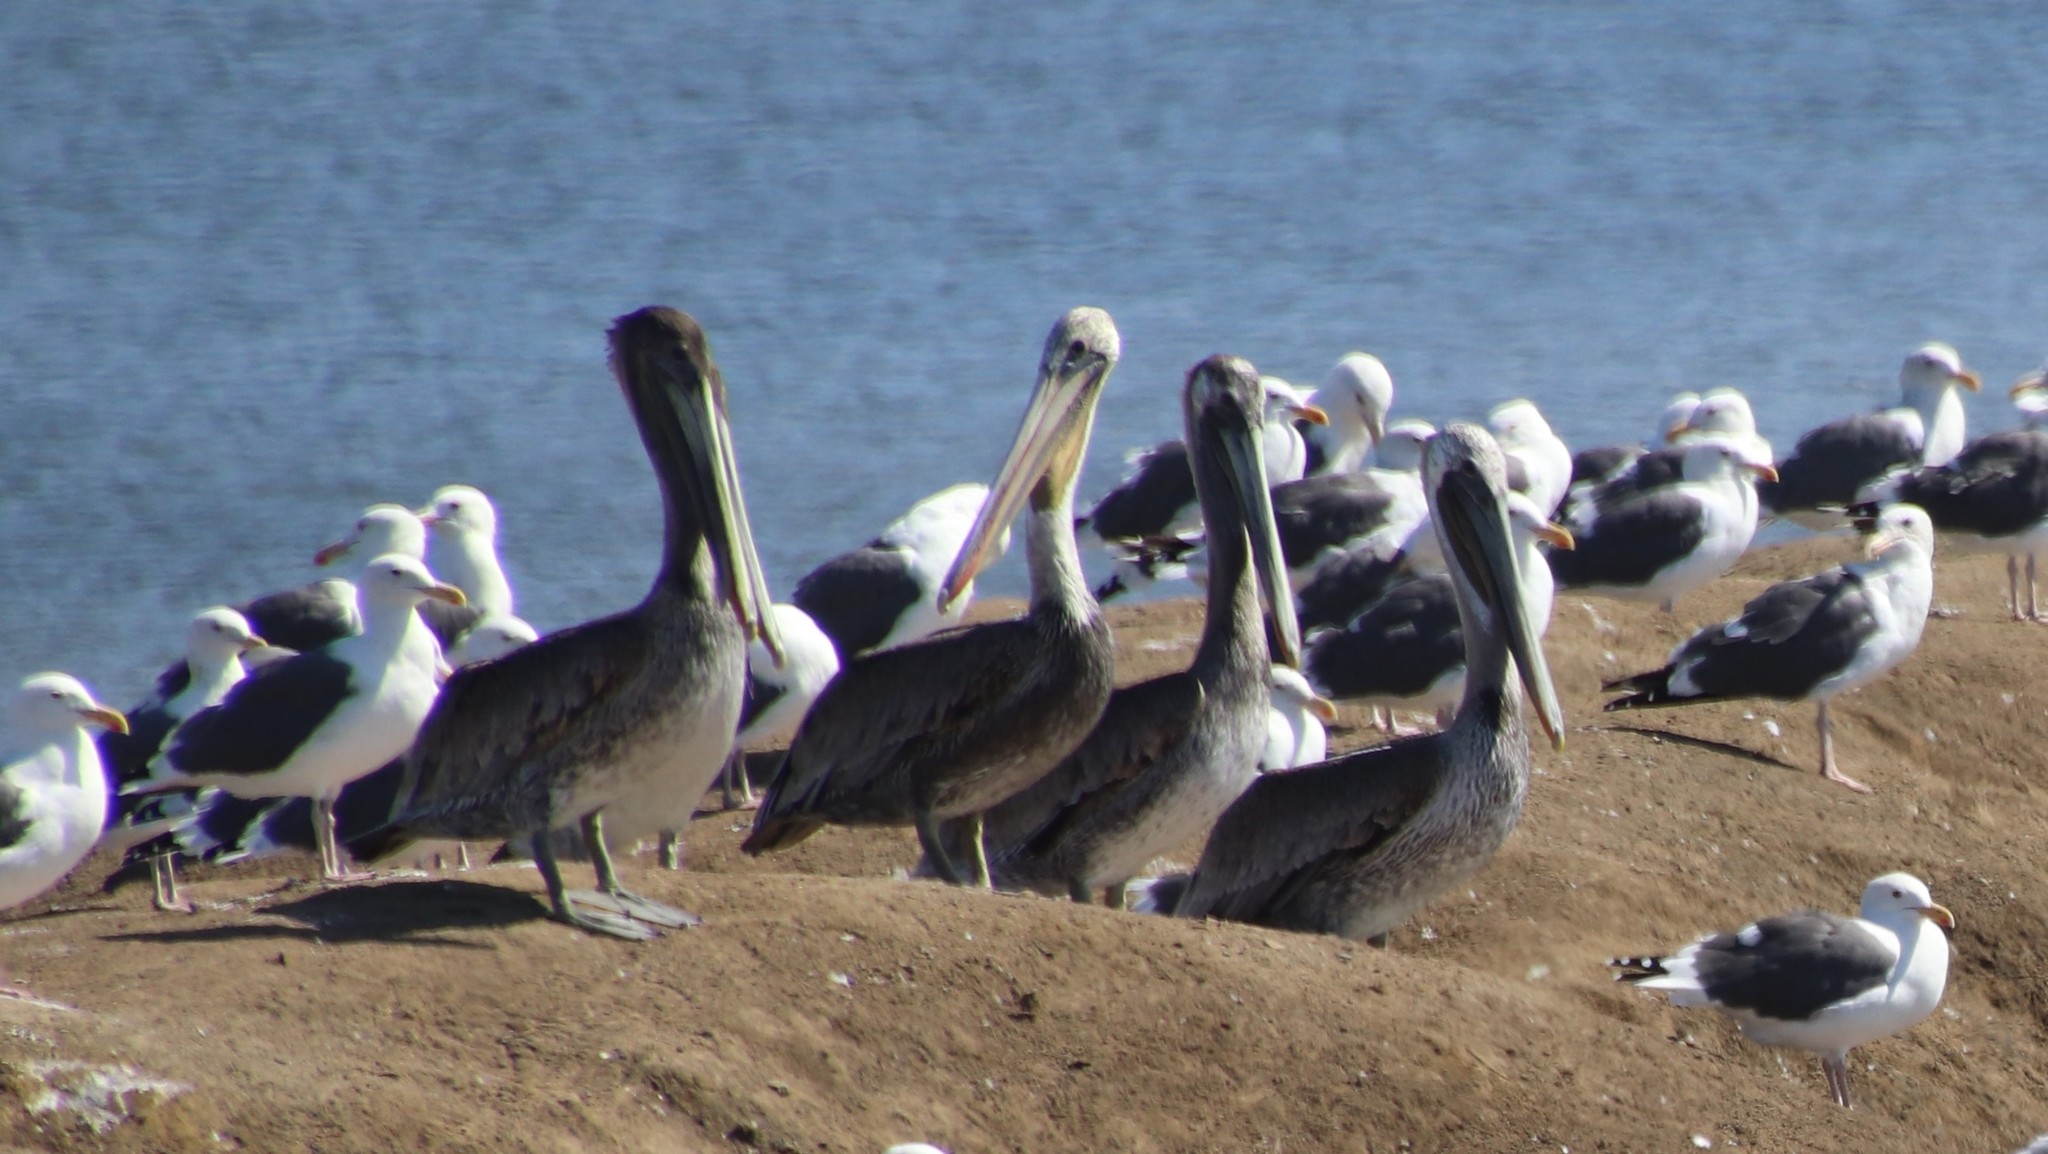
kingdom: Animalia
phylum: Chordata
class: Aves
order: Pelecaniformes
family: Pelecanidae
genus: Pelecanus
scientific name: Pelecanus occidentalis
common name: Brown pelican
